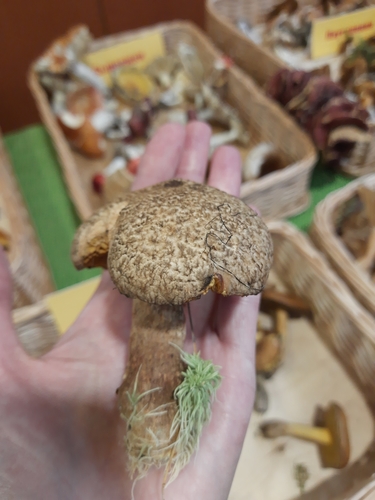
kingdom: Fungi
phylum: Basidiomycota
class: Agaricomycetes
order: Boletales
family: Suillaceae
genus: Suillus
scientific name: Suillus spraguei
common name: Painted suillus
